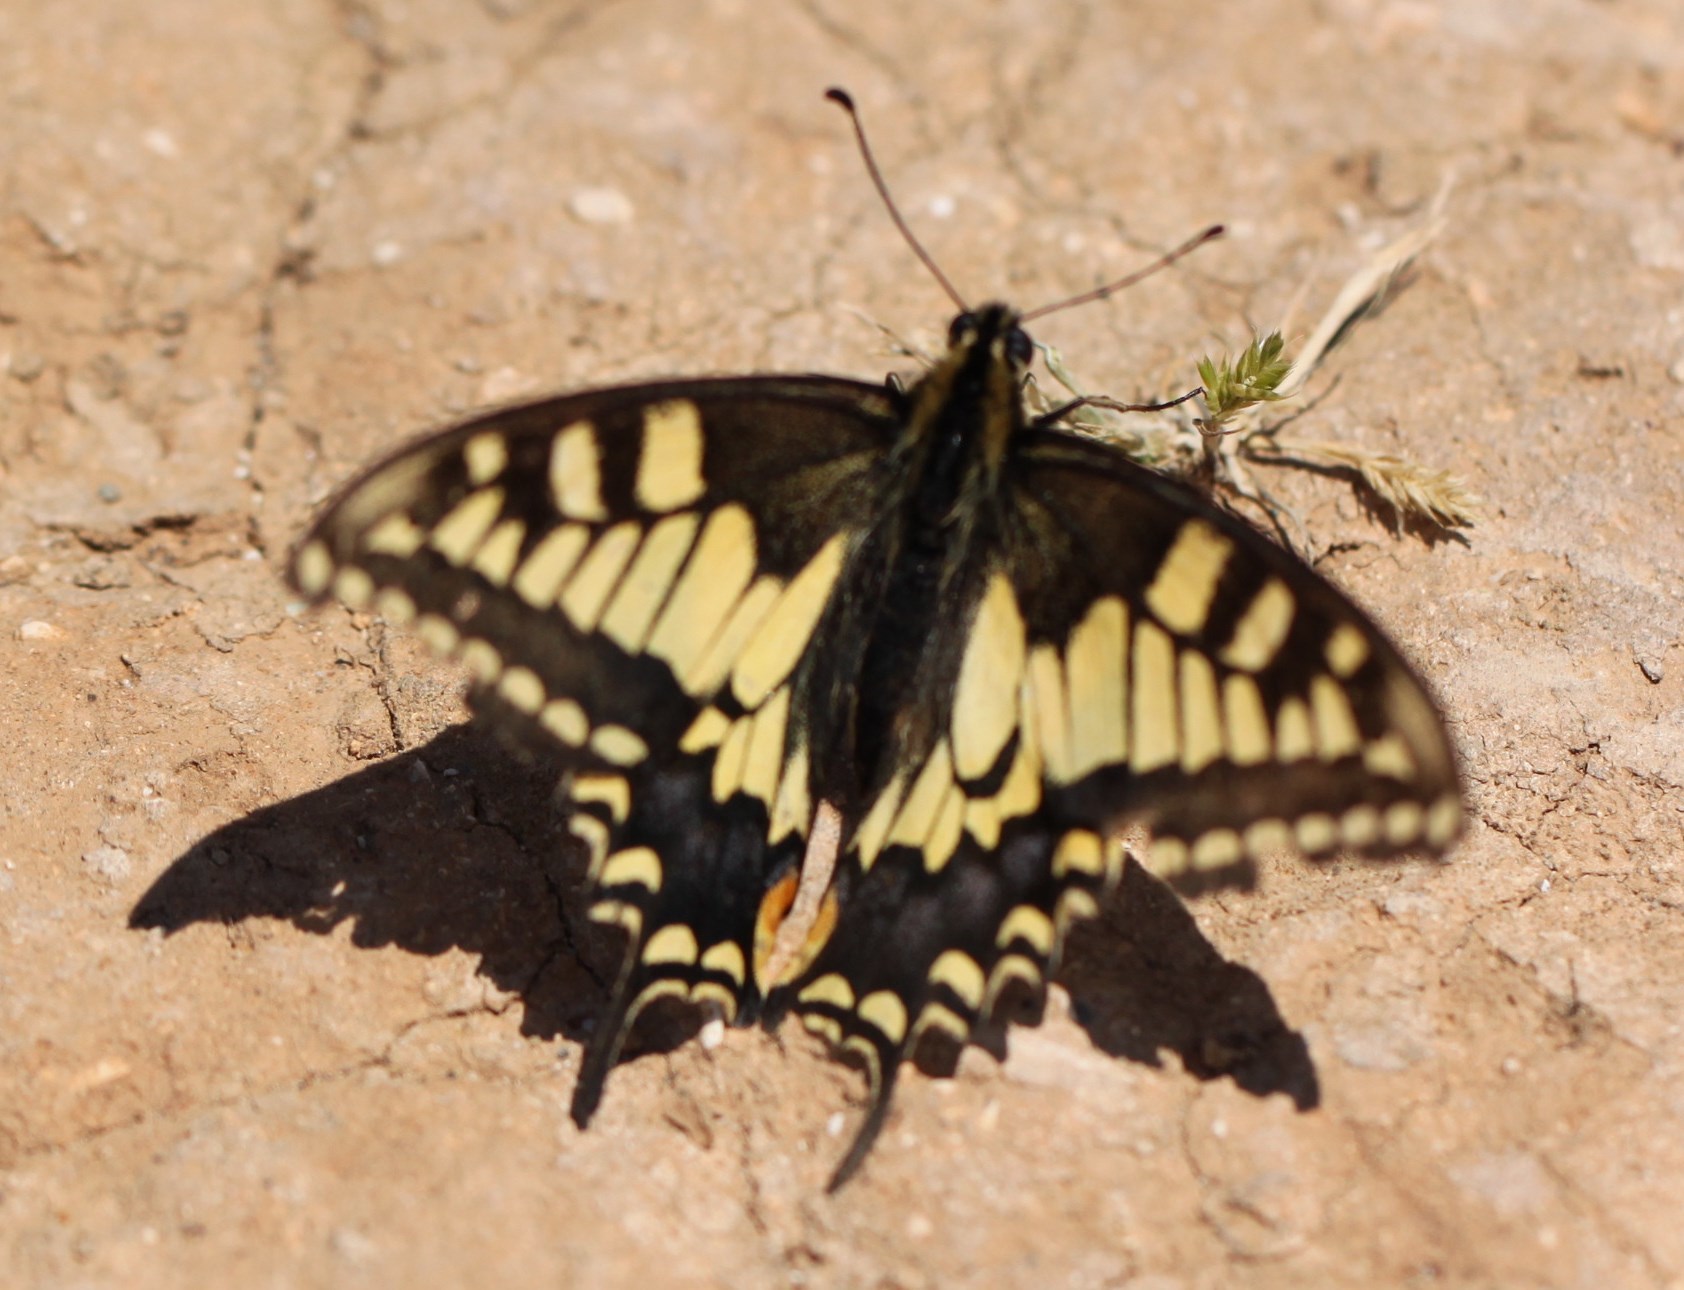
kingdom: Animalia
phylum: Arthropoda
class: Insecta
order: Lepidoptera
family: Papilionidae
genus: Papilio
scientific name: Papilio machaon
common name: Swallowtail
